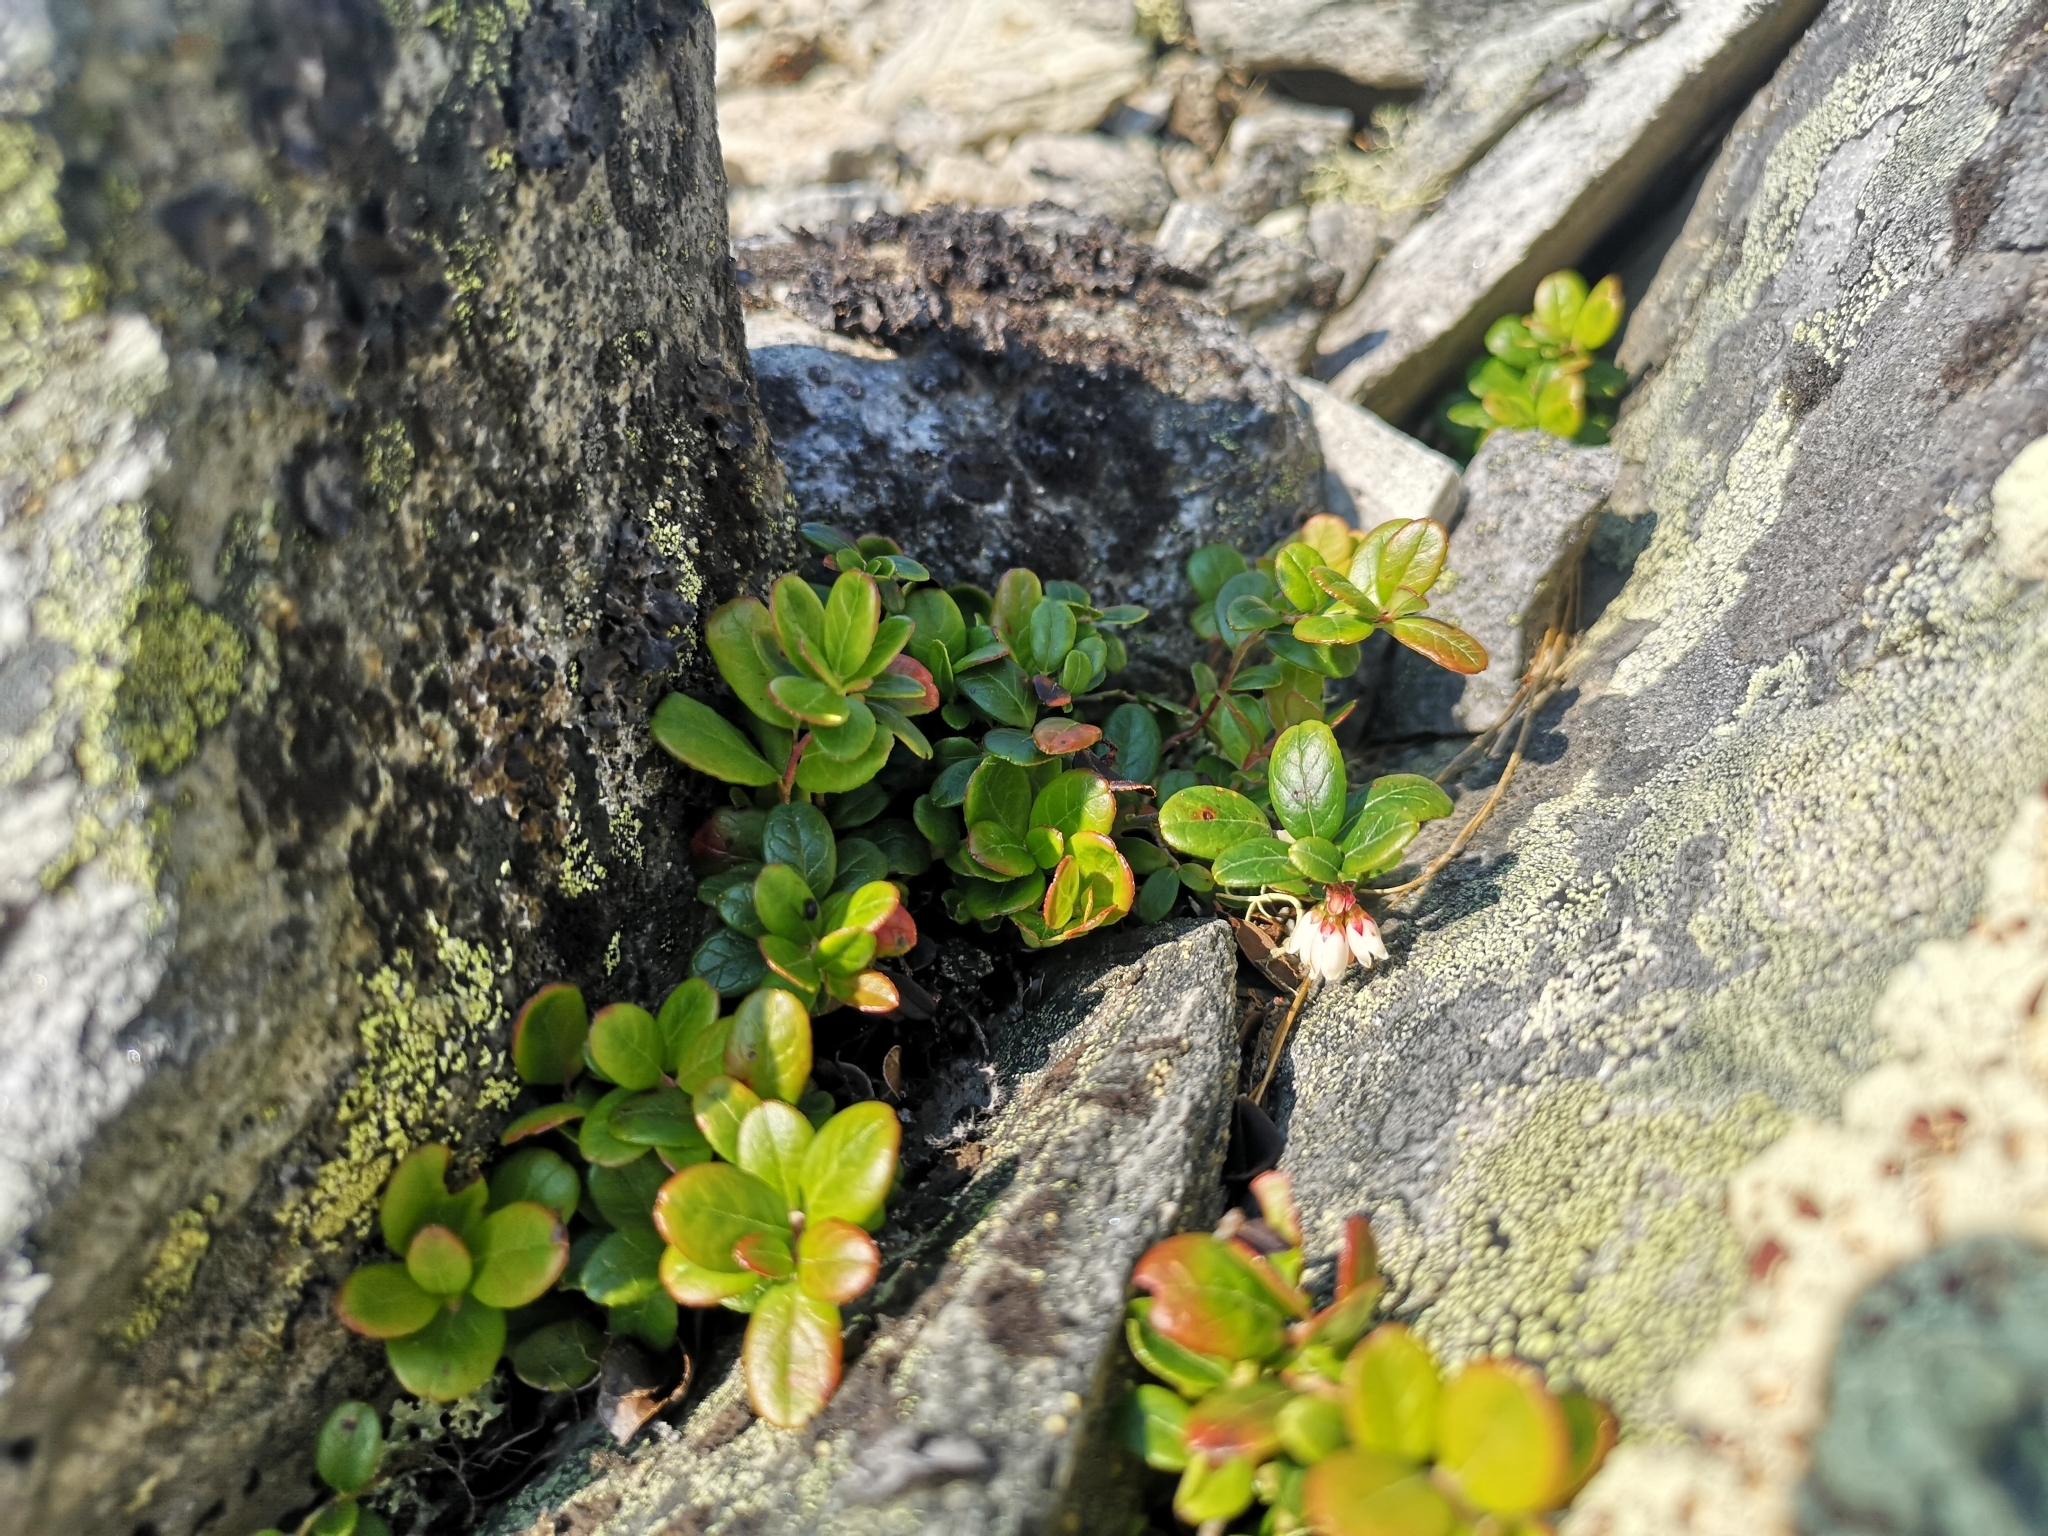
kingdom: Plantae
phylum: Tracheophyta
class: Magnoliopsida
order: Ericales
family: Ericaceae
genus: Vaccinium
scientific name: Vaccinium vitis-idaea
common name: Cowberry
